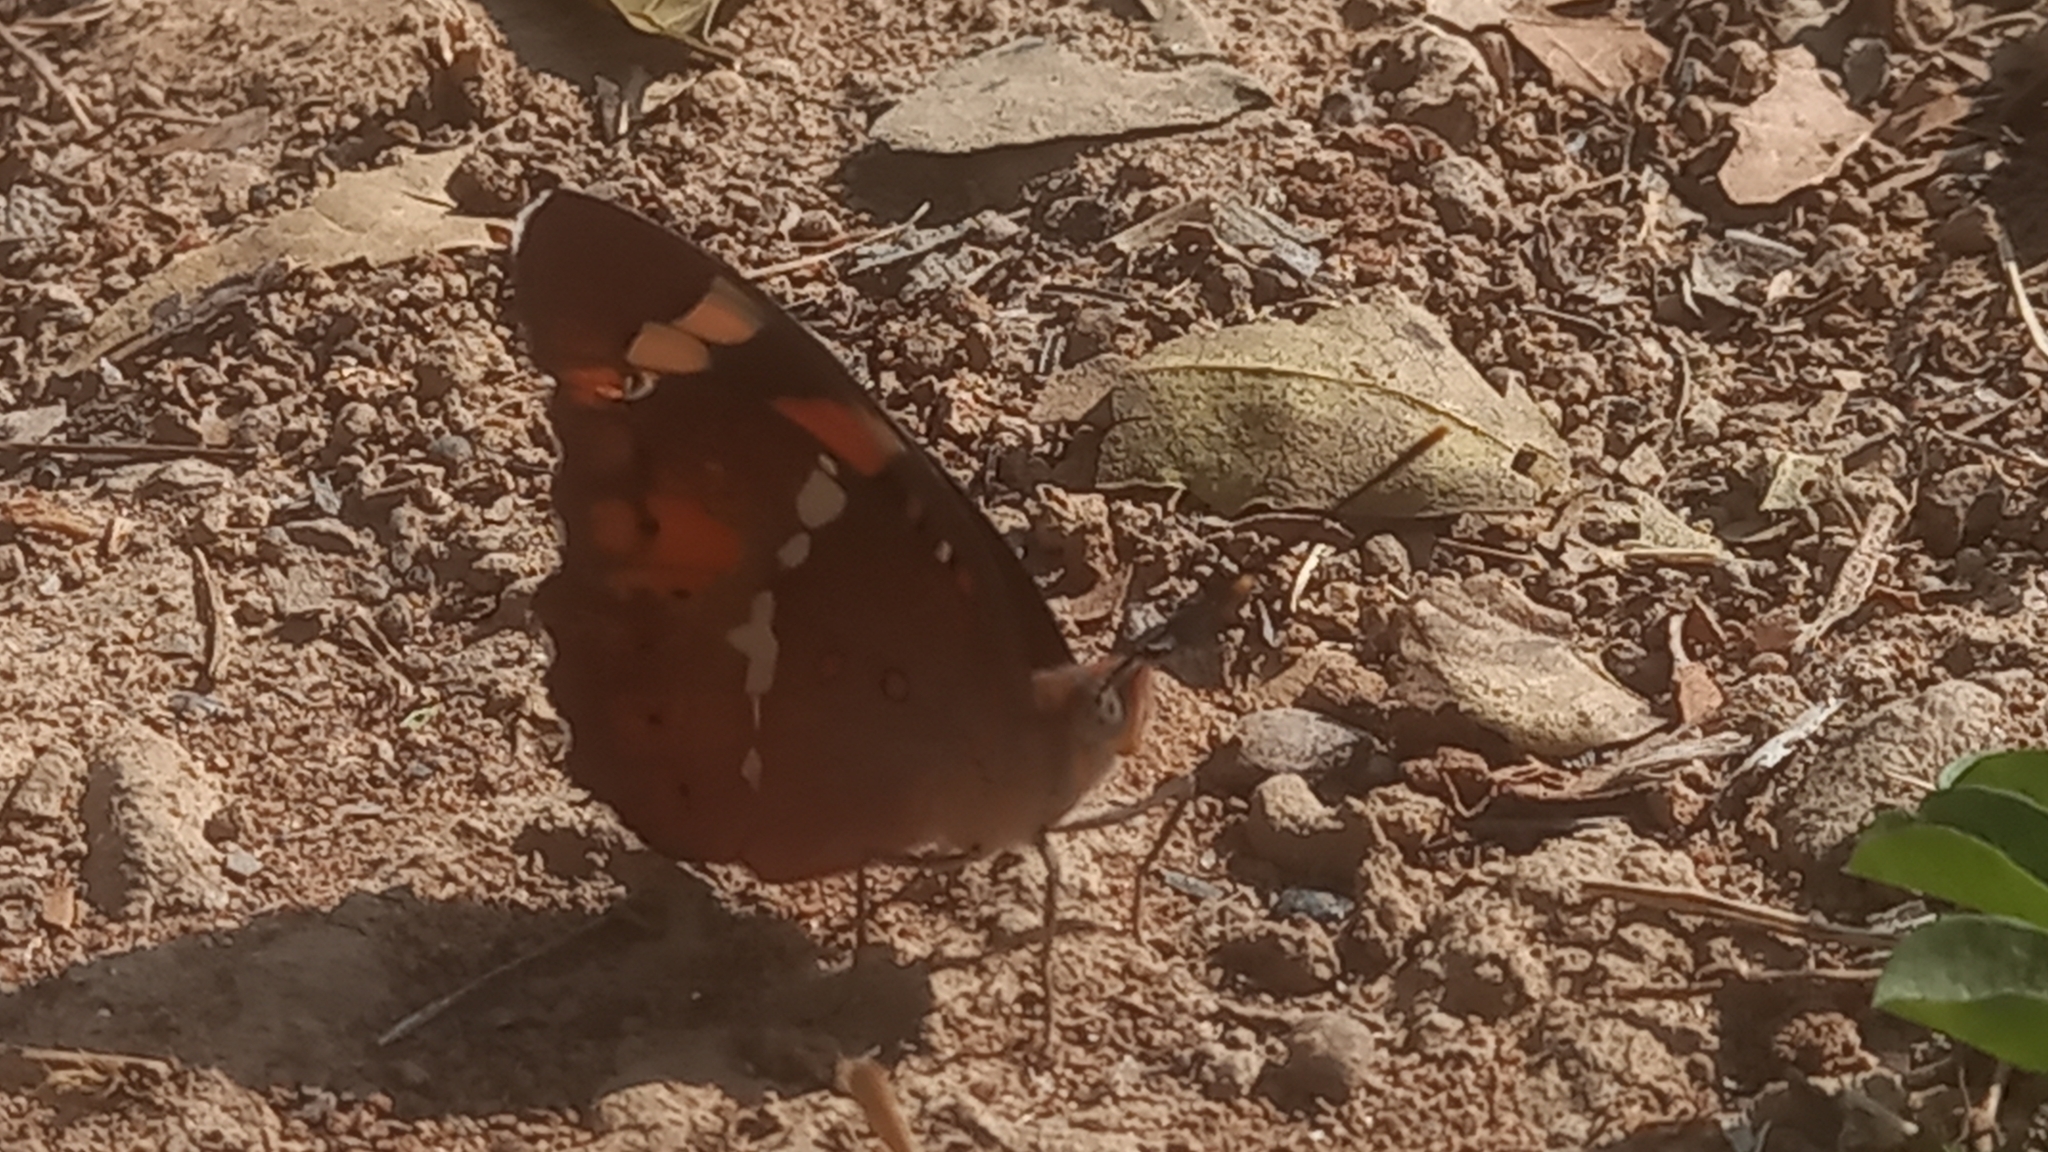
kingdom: Animalia
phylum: Arthropoda
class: Insecta
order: Lepidoptera
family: Nymphalidae
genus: Euthalia
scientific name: Euthalia nais
